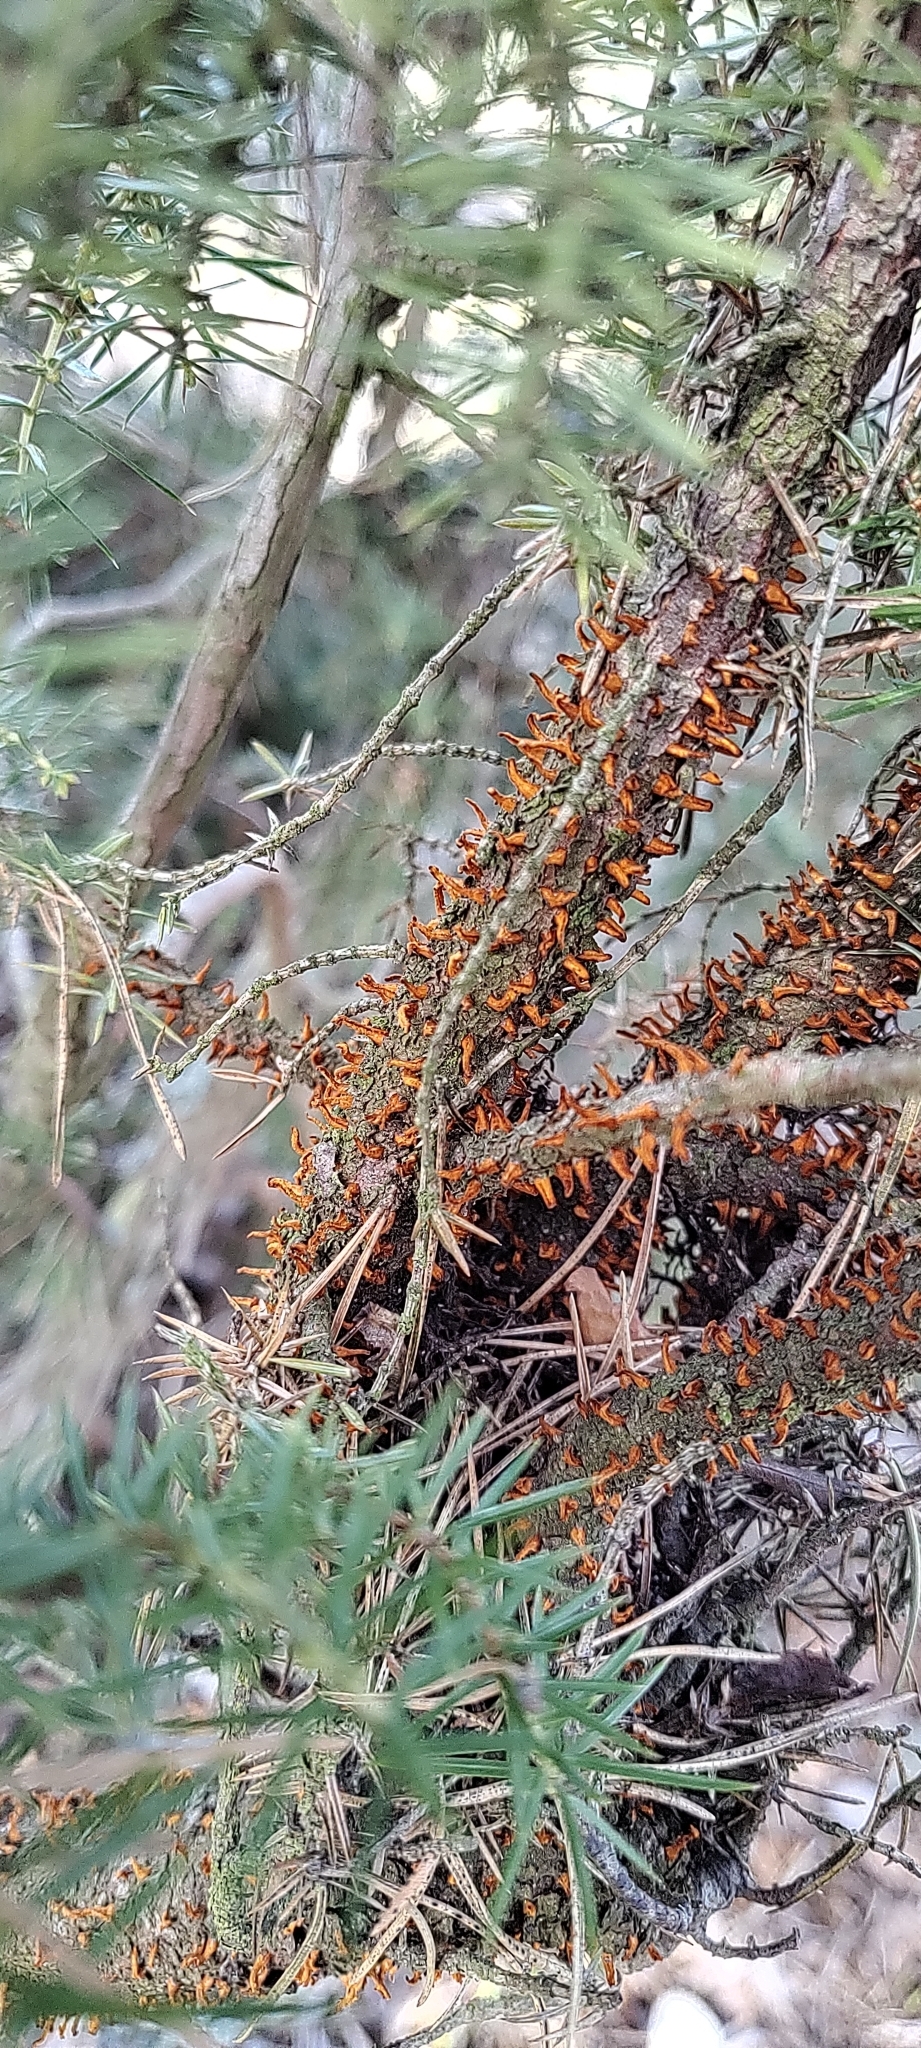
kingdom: Fungi
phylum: Basidiomycota
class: Pucciniomycetes
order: Pucciniales
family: Gymnosporangiaceae
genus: Gymnosporangium
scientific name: Gymnosporangium clavariiforme
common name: Tongues of fire
